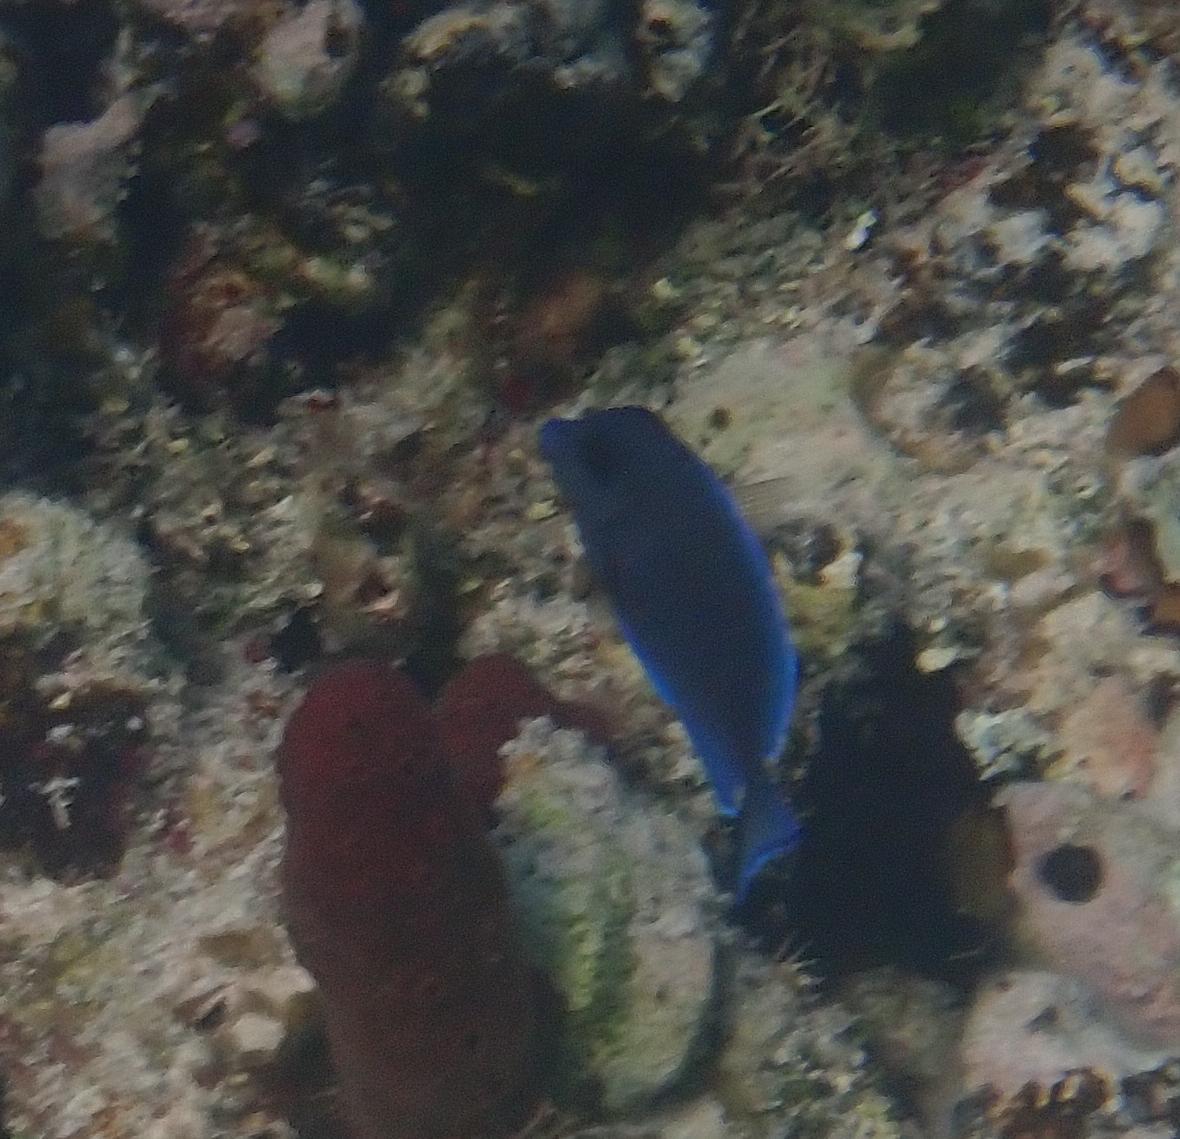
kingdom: Animalia
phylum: Chordata
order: Perciformes
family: Acanthuridae
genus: Acanthurus
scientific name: Acanthurus coeruleus
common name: Blue tang
